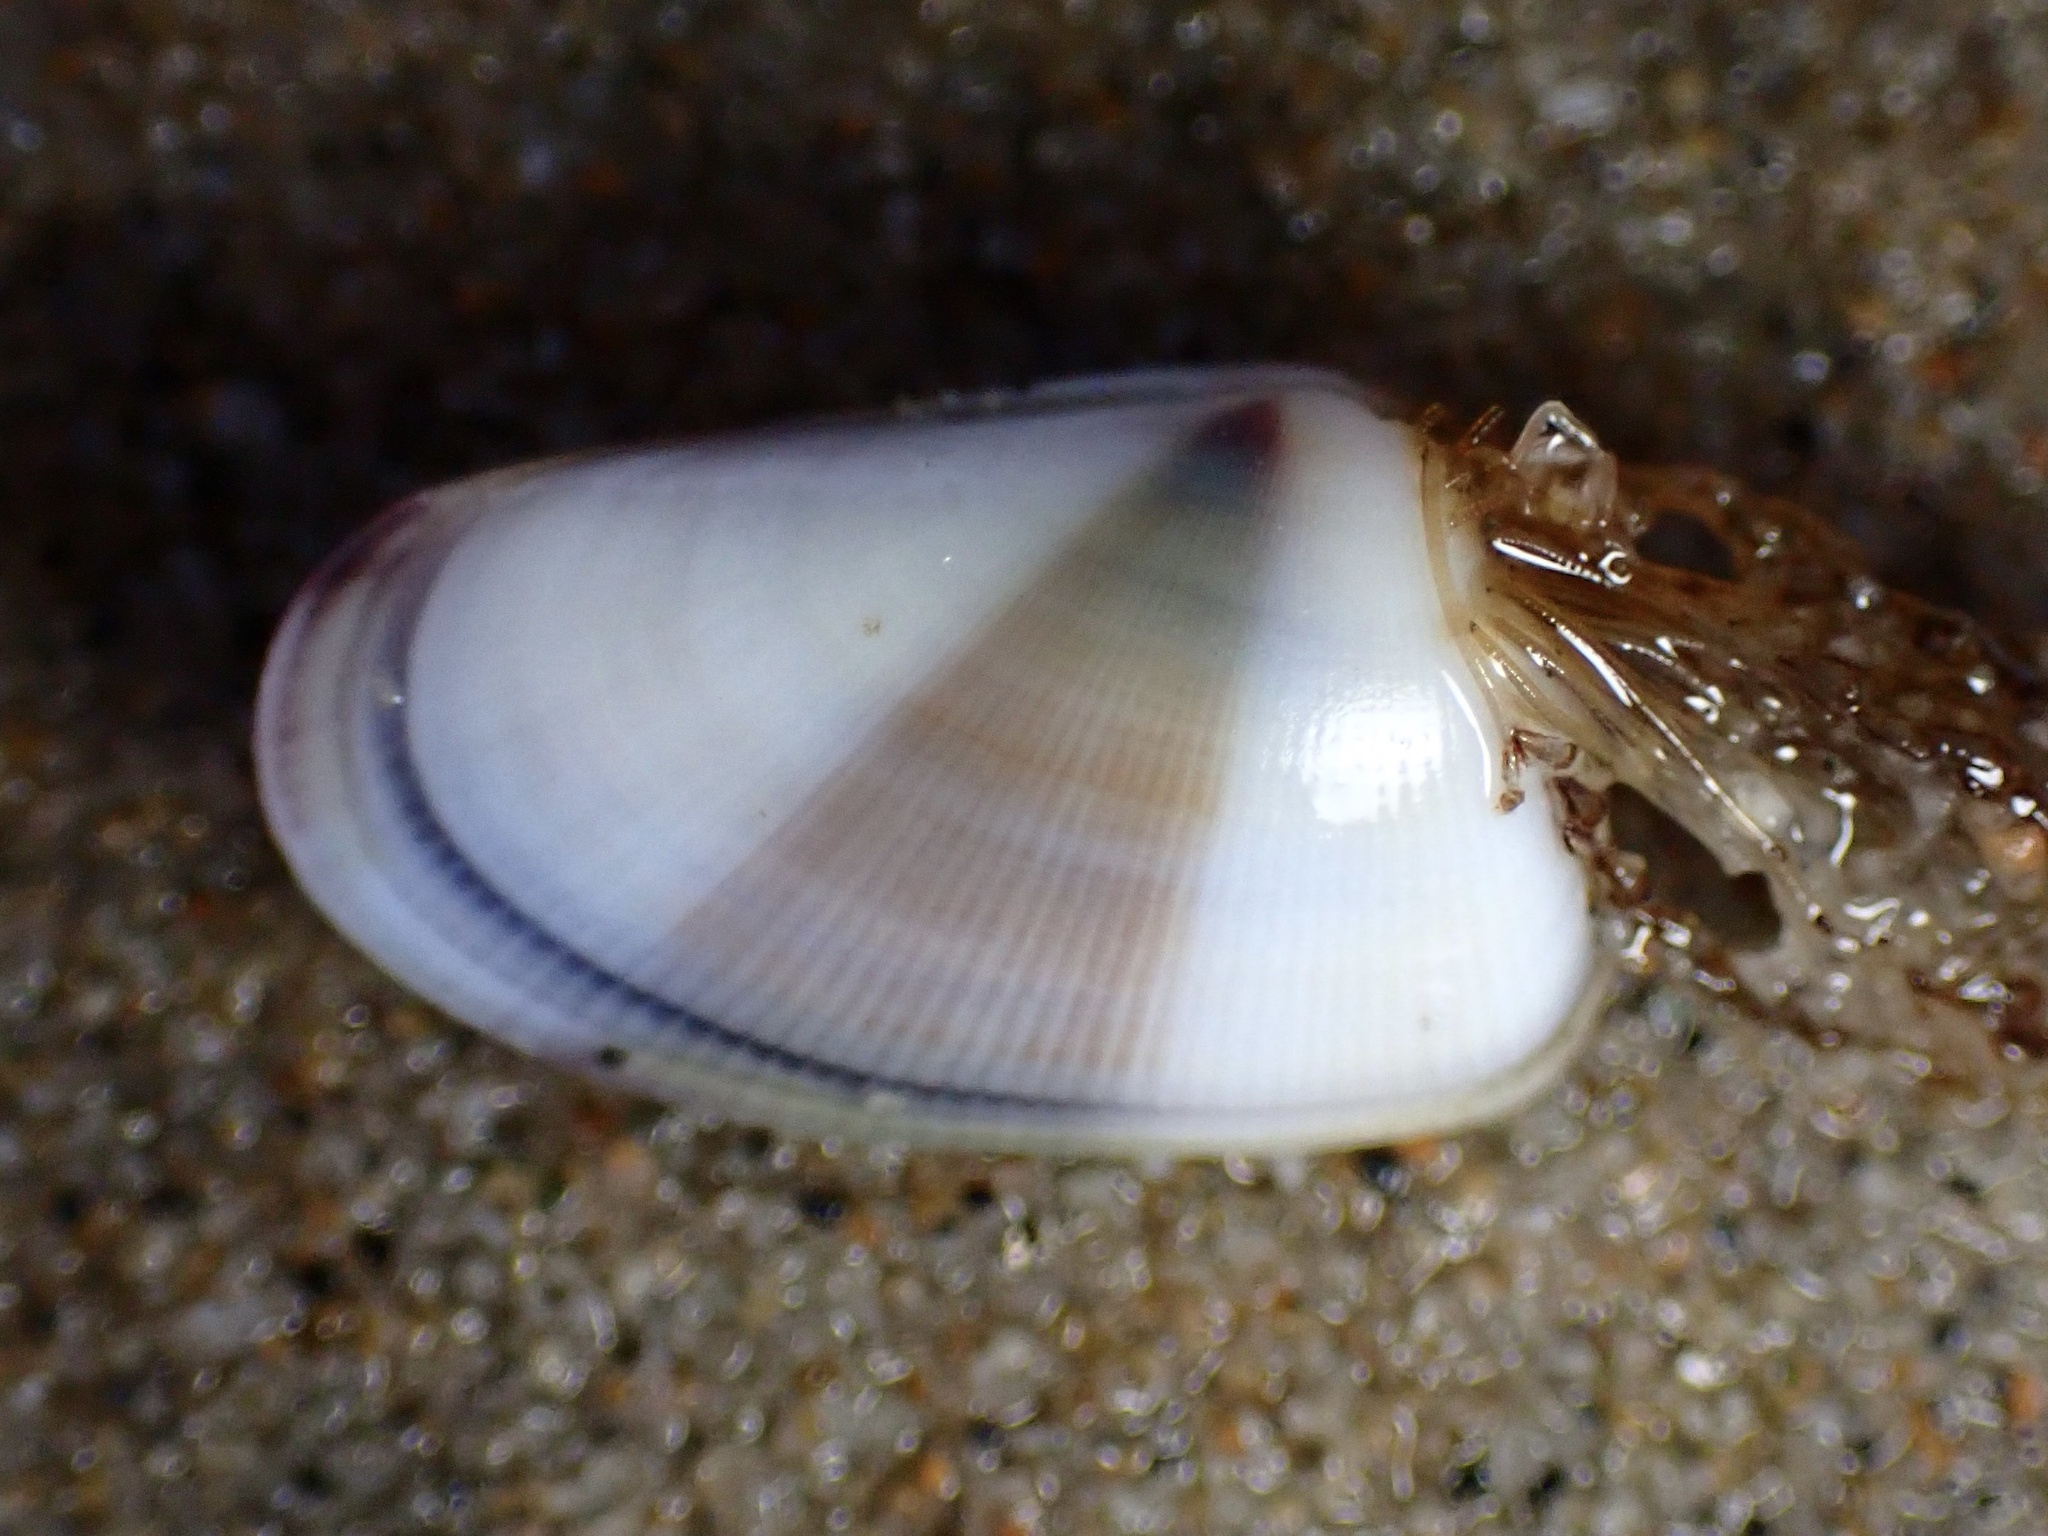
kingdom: Animalia
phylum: Mollusca
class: Bivalvia
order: Cardiida
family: Donacidae
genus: Donax
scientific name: Donax gouldii
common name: Gould beanclam
